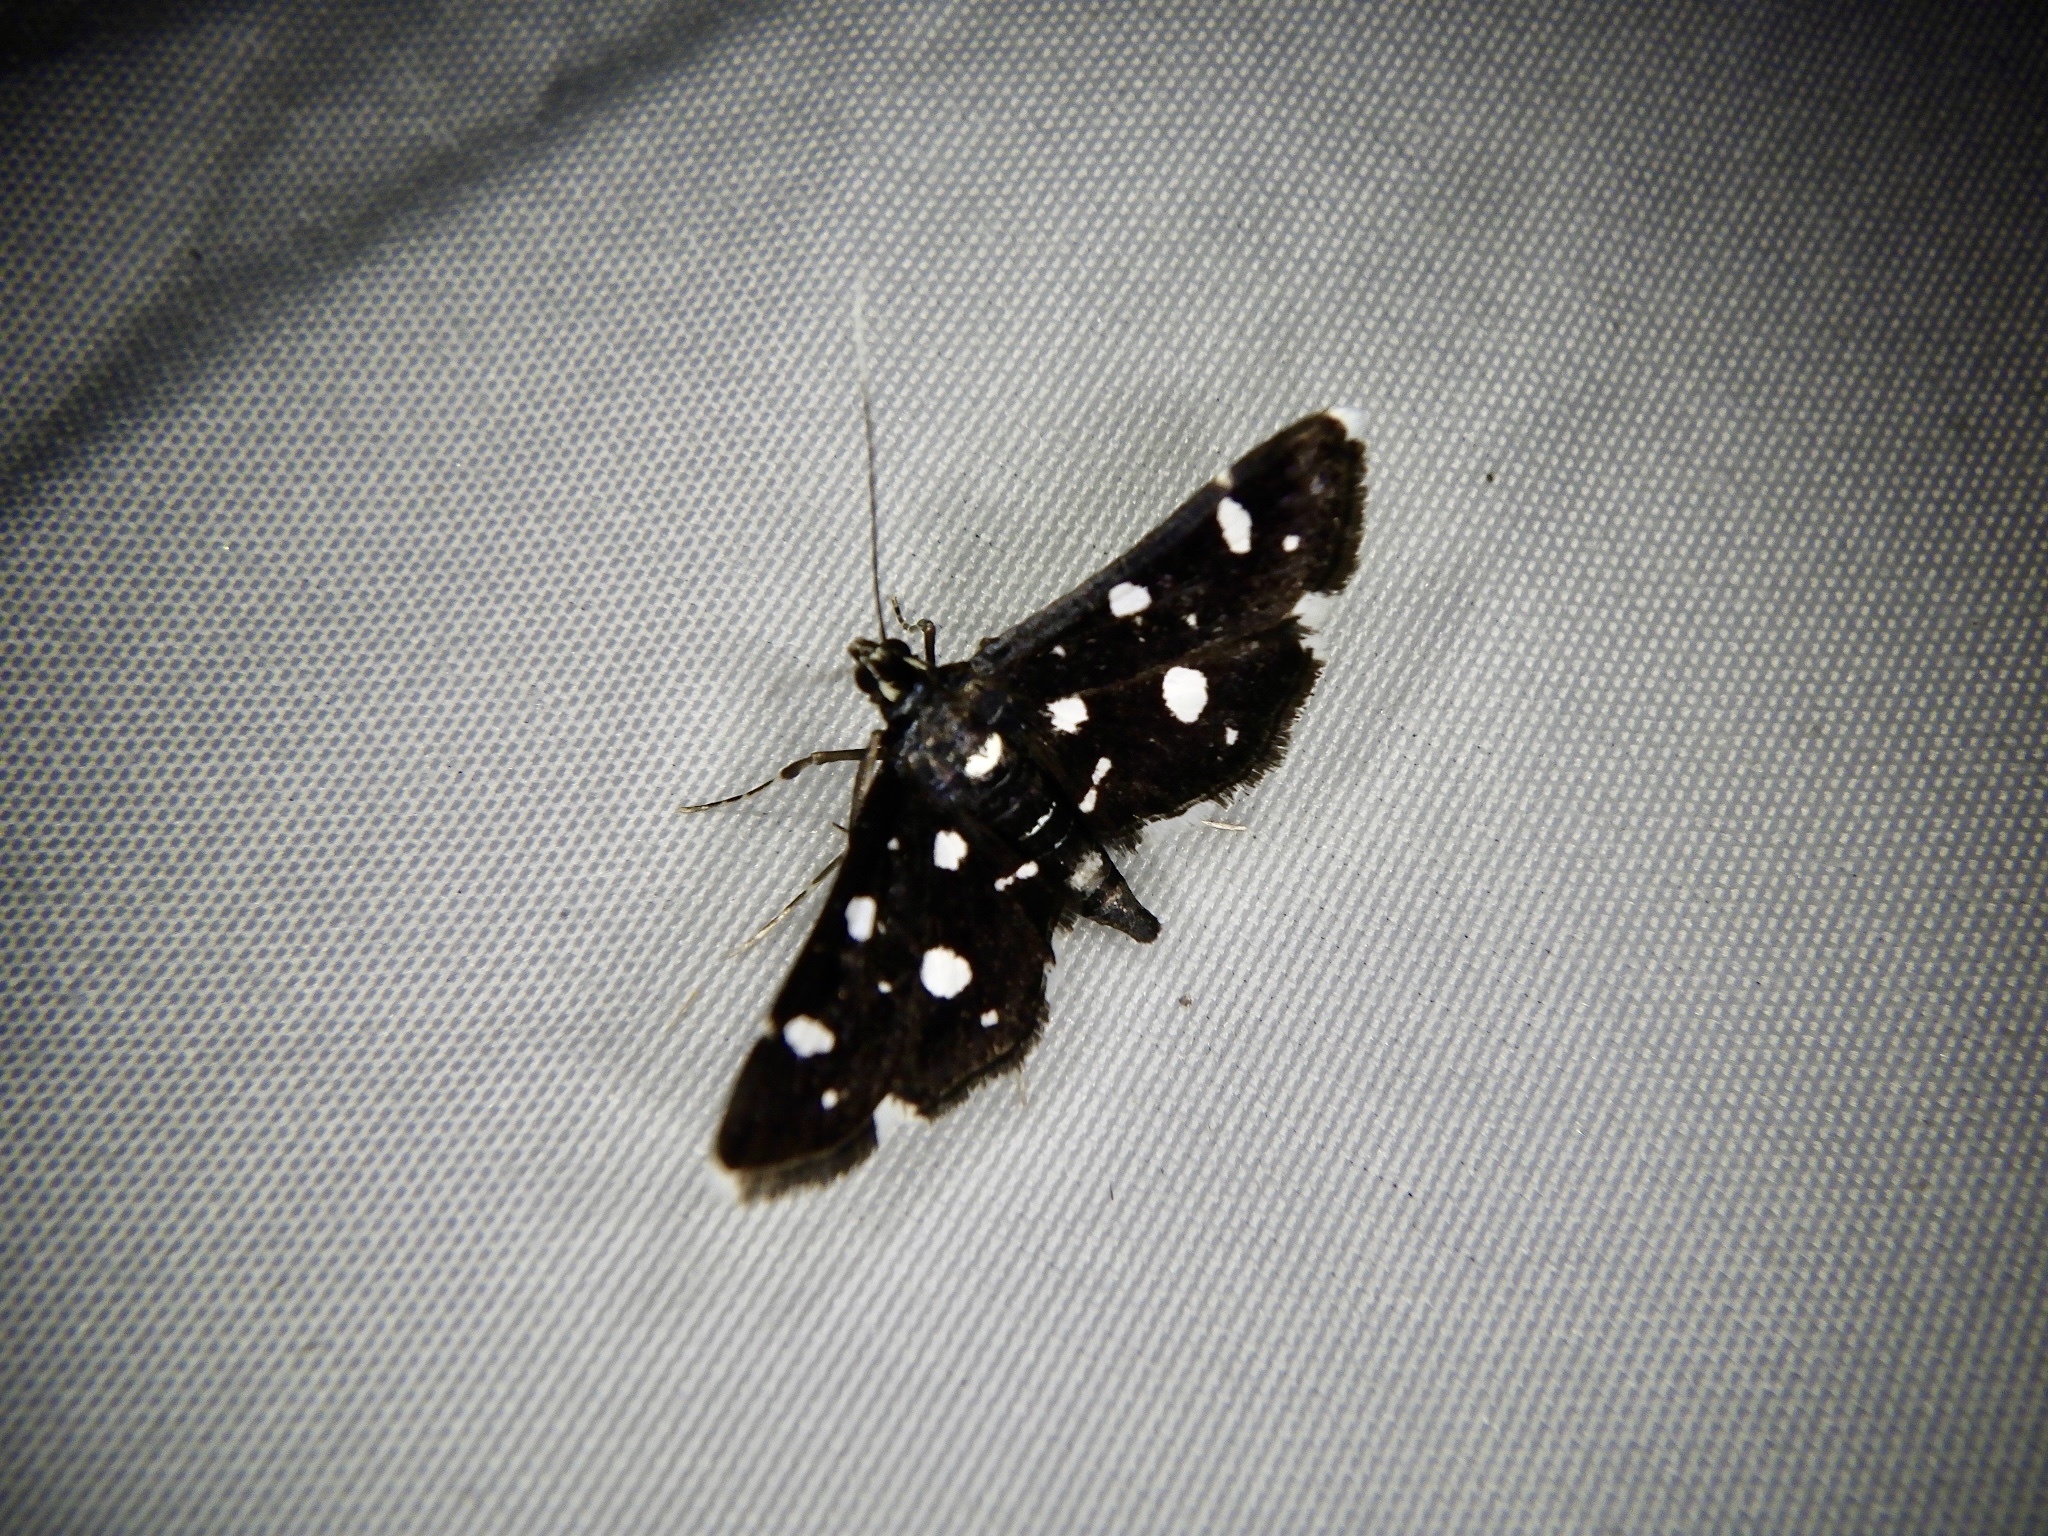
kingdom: Animalia
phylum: Arthropoda
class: Insecta
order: Lepidoptera
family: Crambidae
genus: Bocchoris
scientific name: Bocchoris inspersalis
